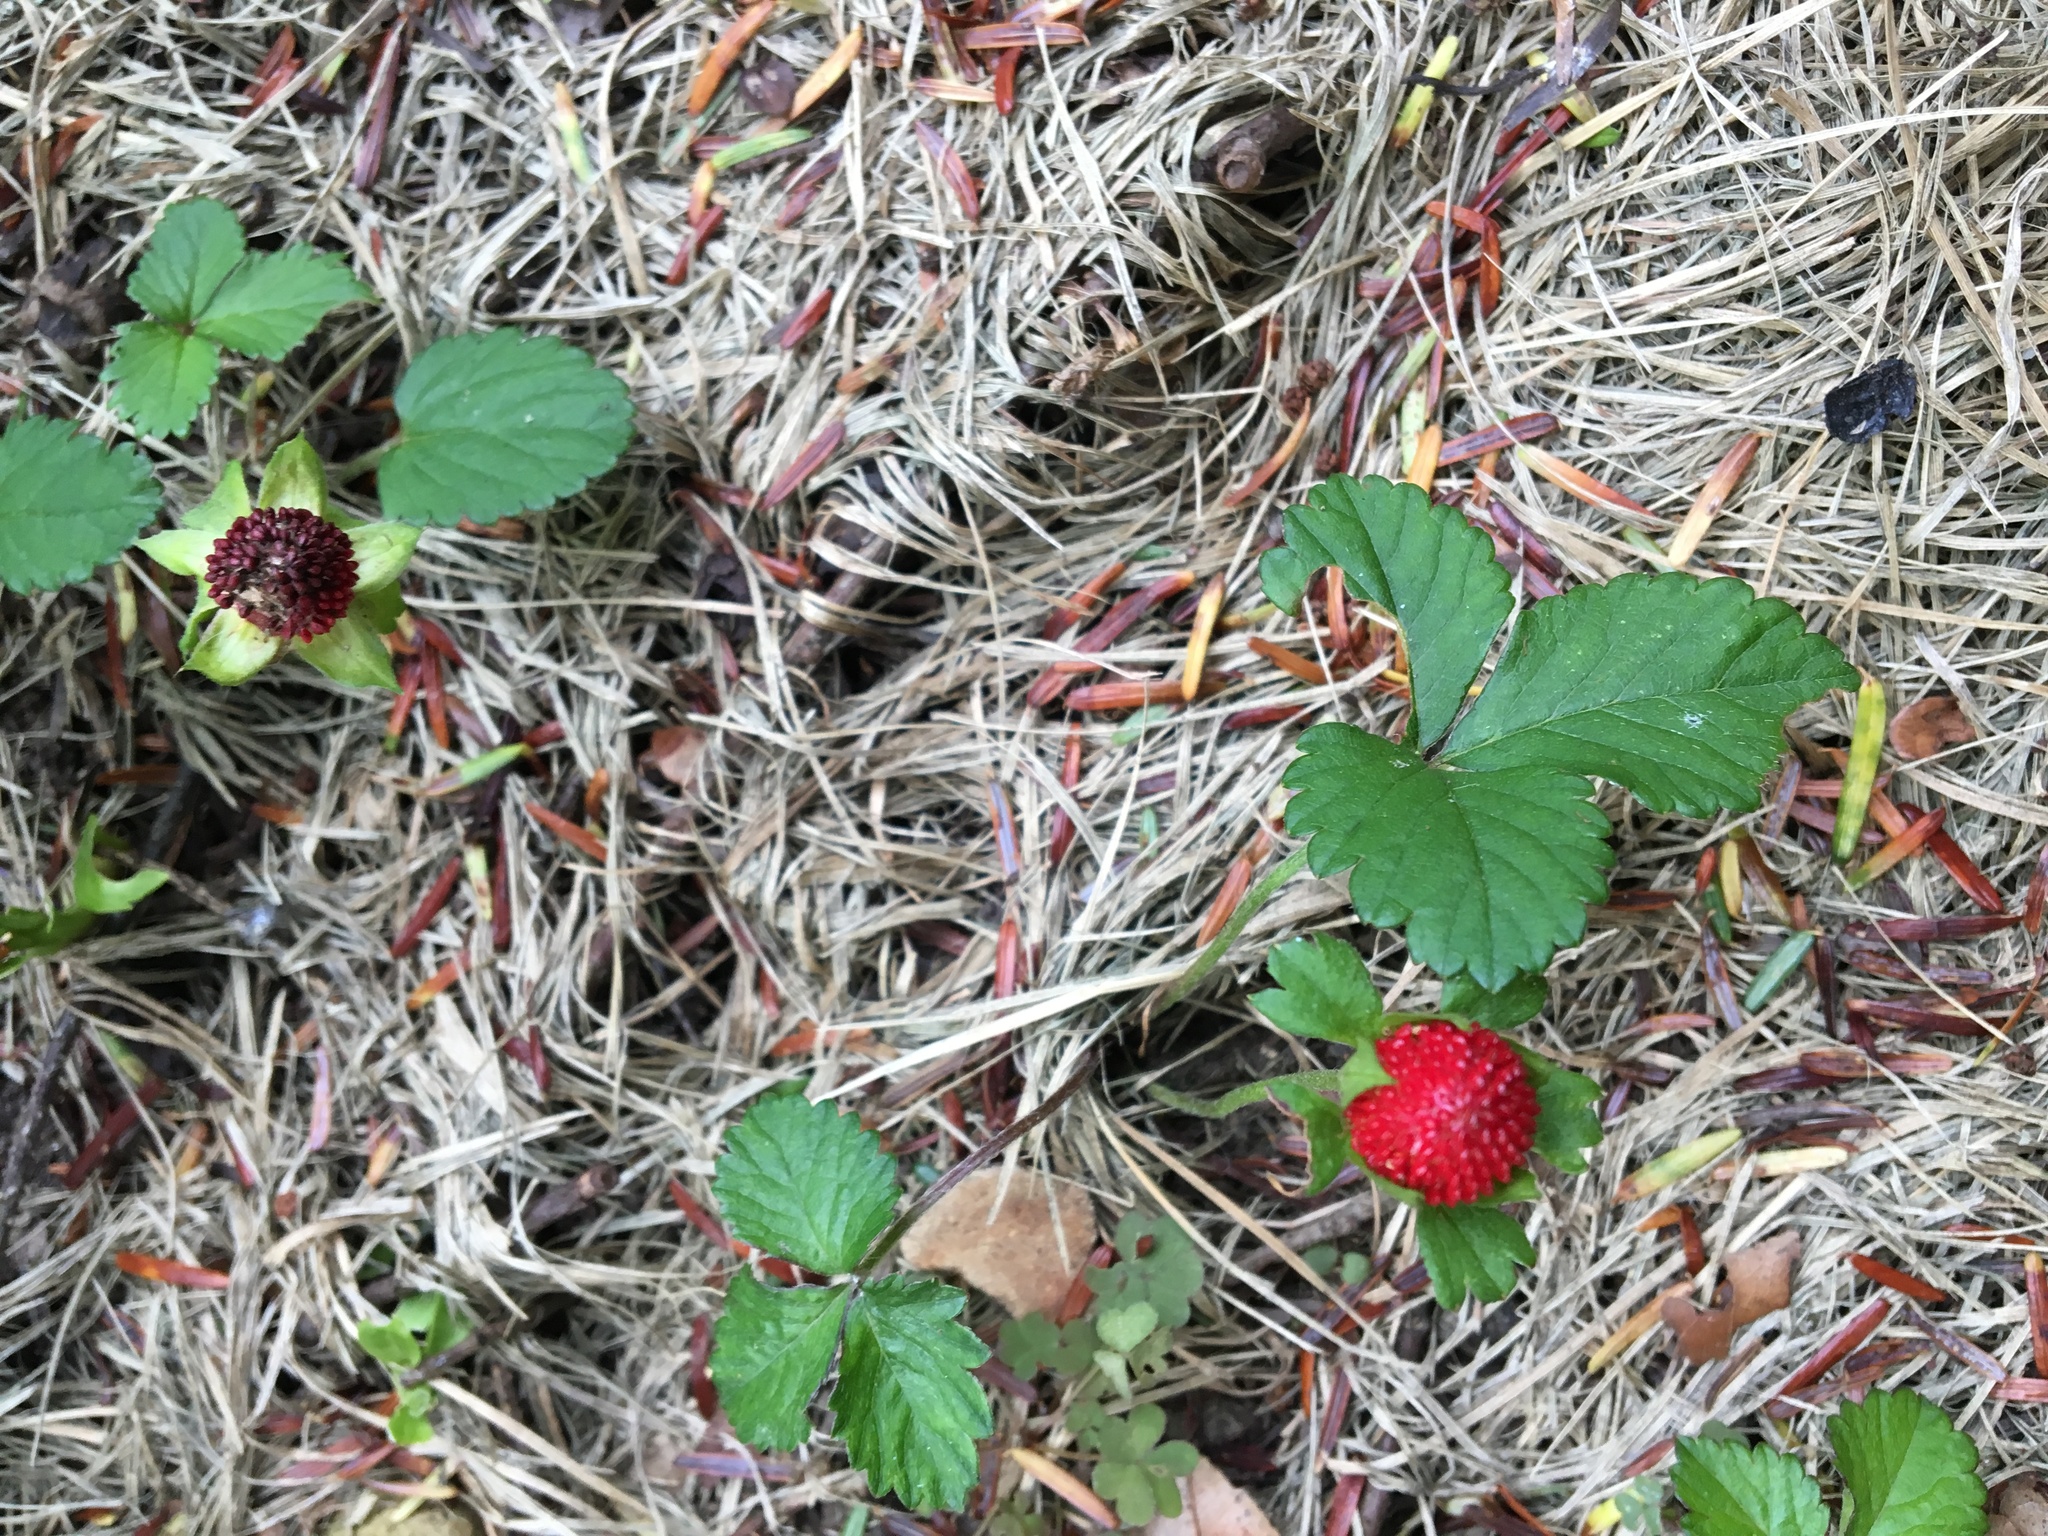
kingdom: Plantae
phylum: Tracheophyta
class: Magnoliopsida
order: Rosales
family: Rosaceae
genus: Potentilla
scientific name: Potentilla indica
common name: Yellow-flowered strawberry
